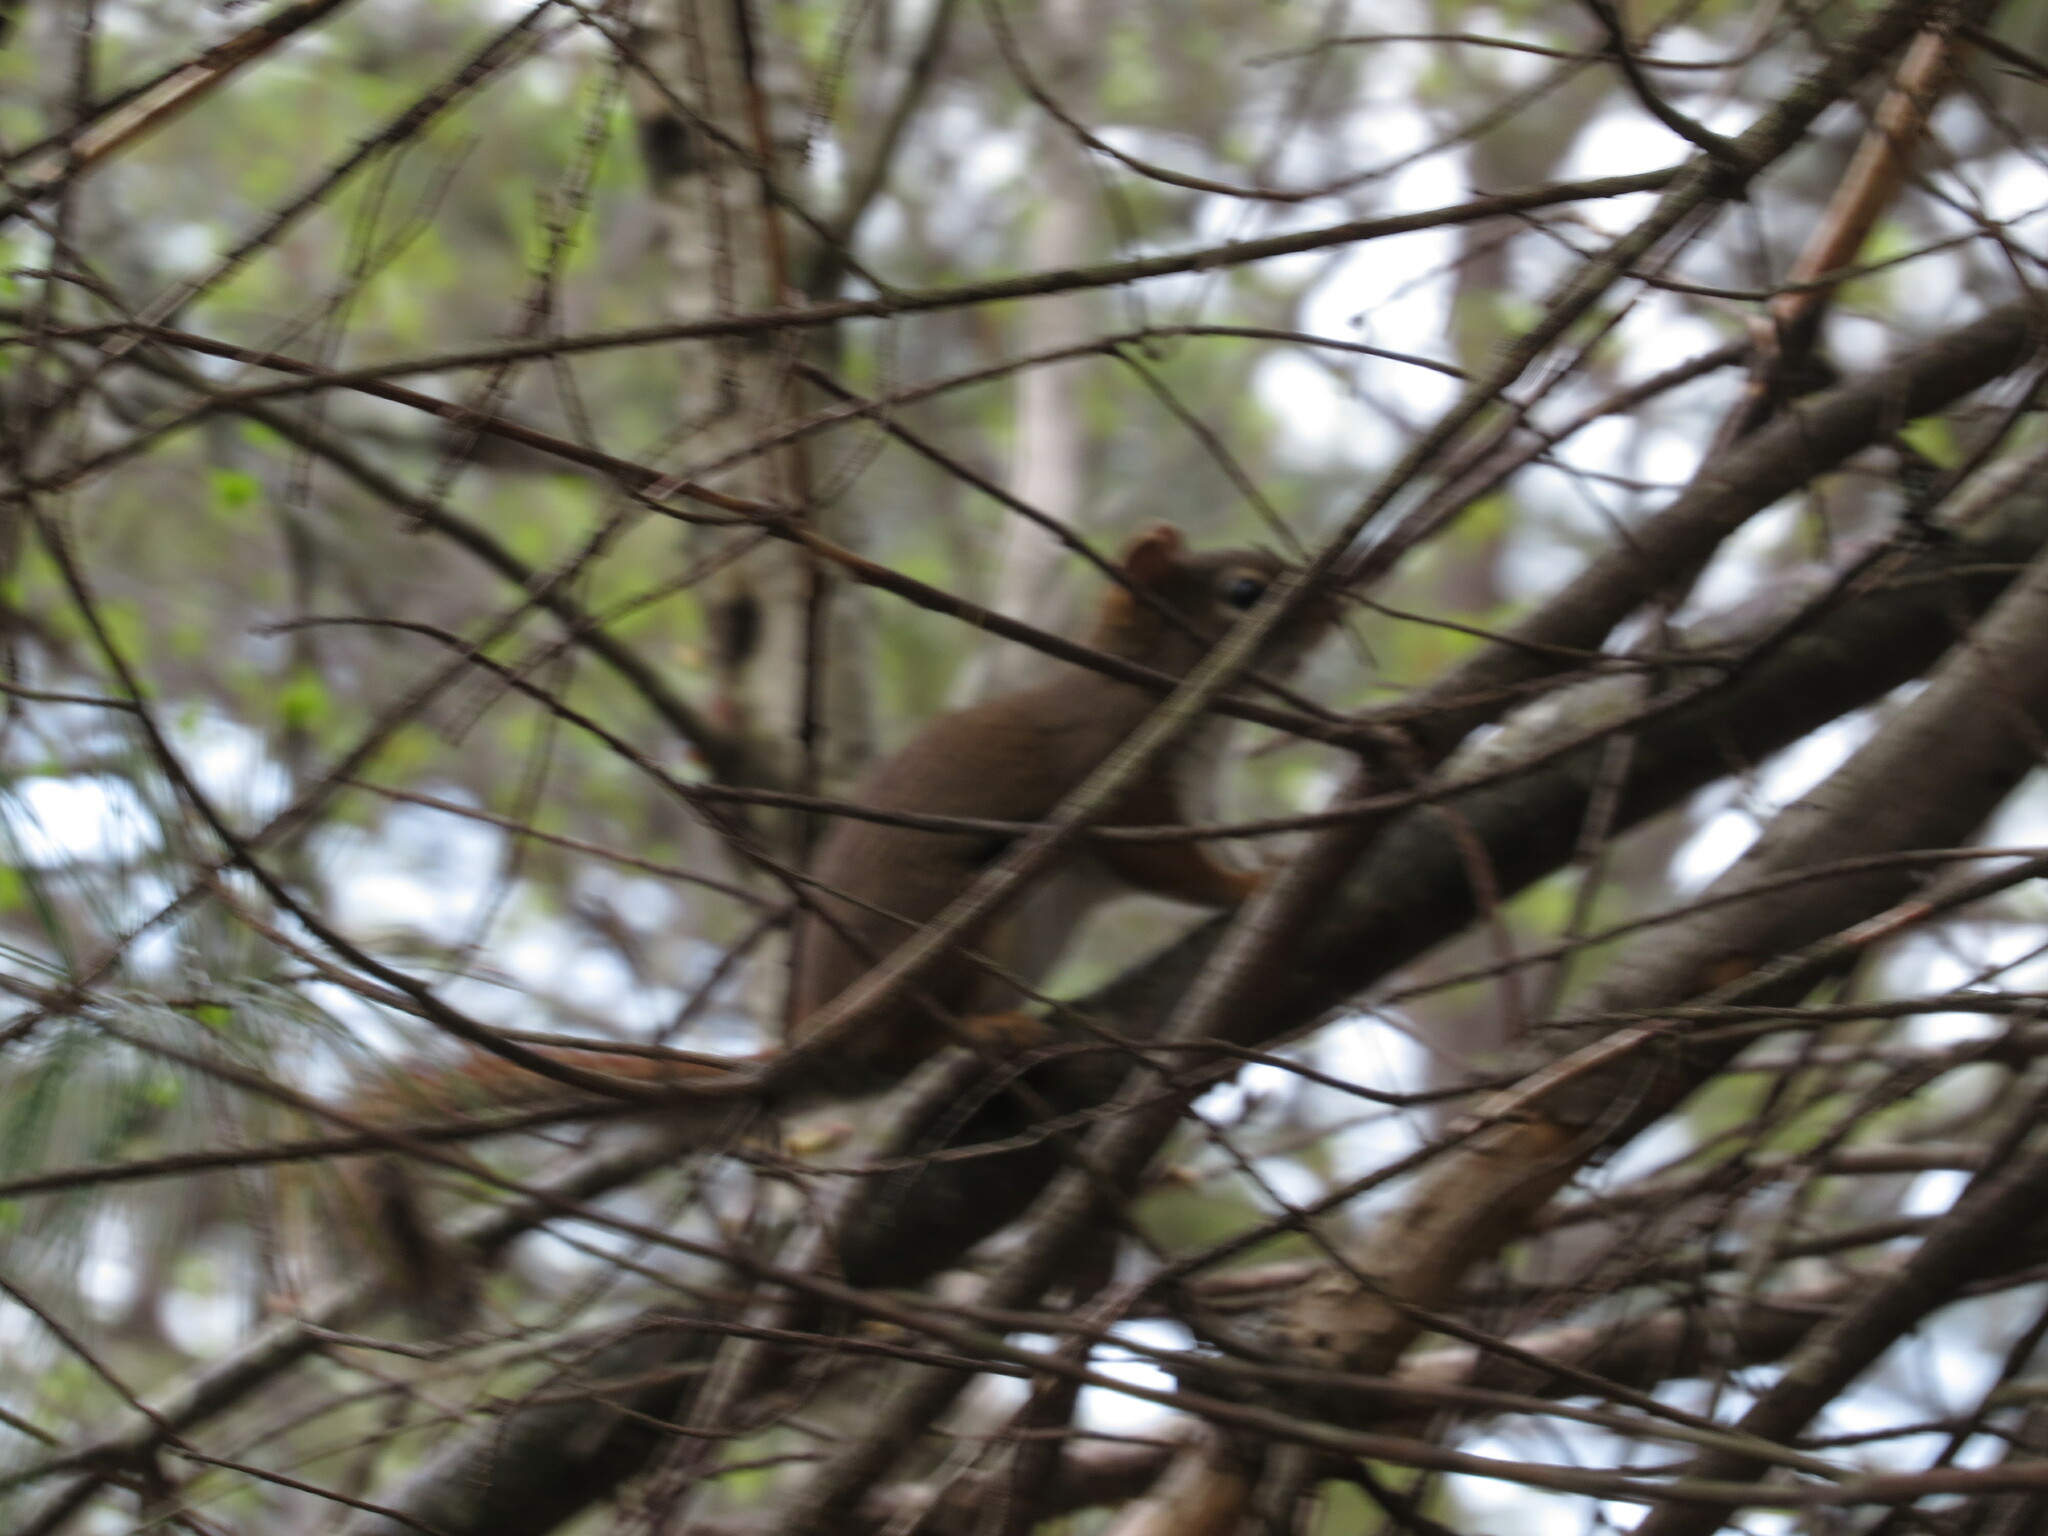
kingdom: Animalia
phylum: Chordata
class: Mammalia
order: Rodentia
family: Sciuridae
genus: Tamiasciurus
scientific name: Tamiasciurus hudsonicus
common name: Red squirrel
